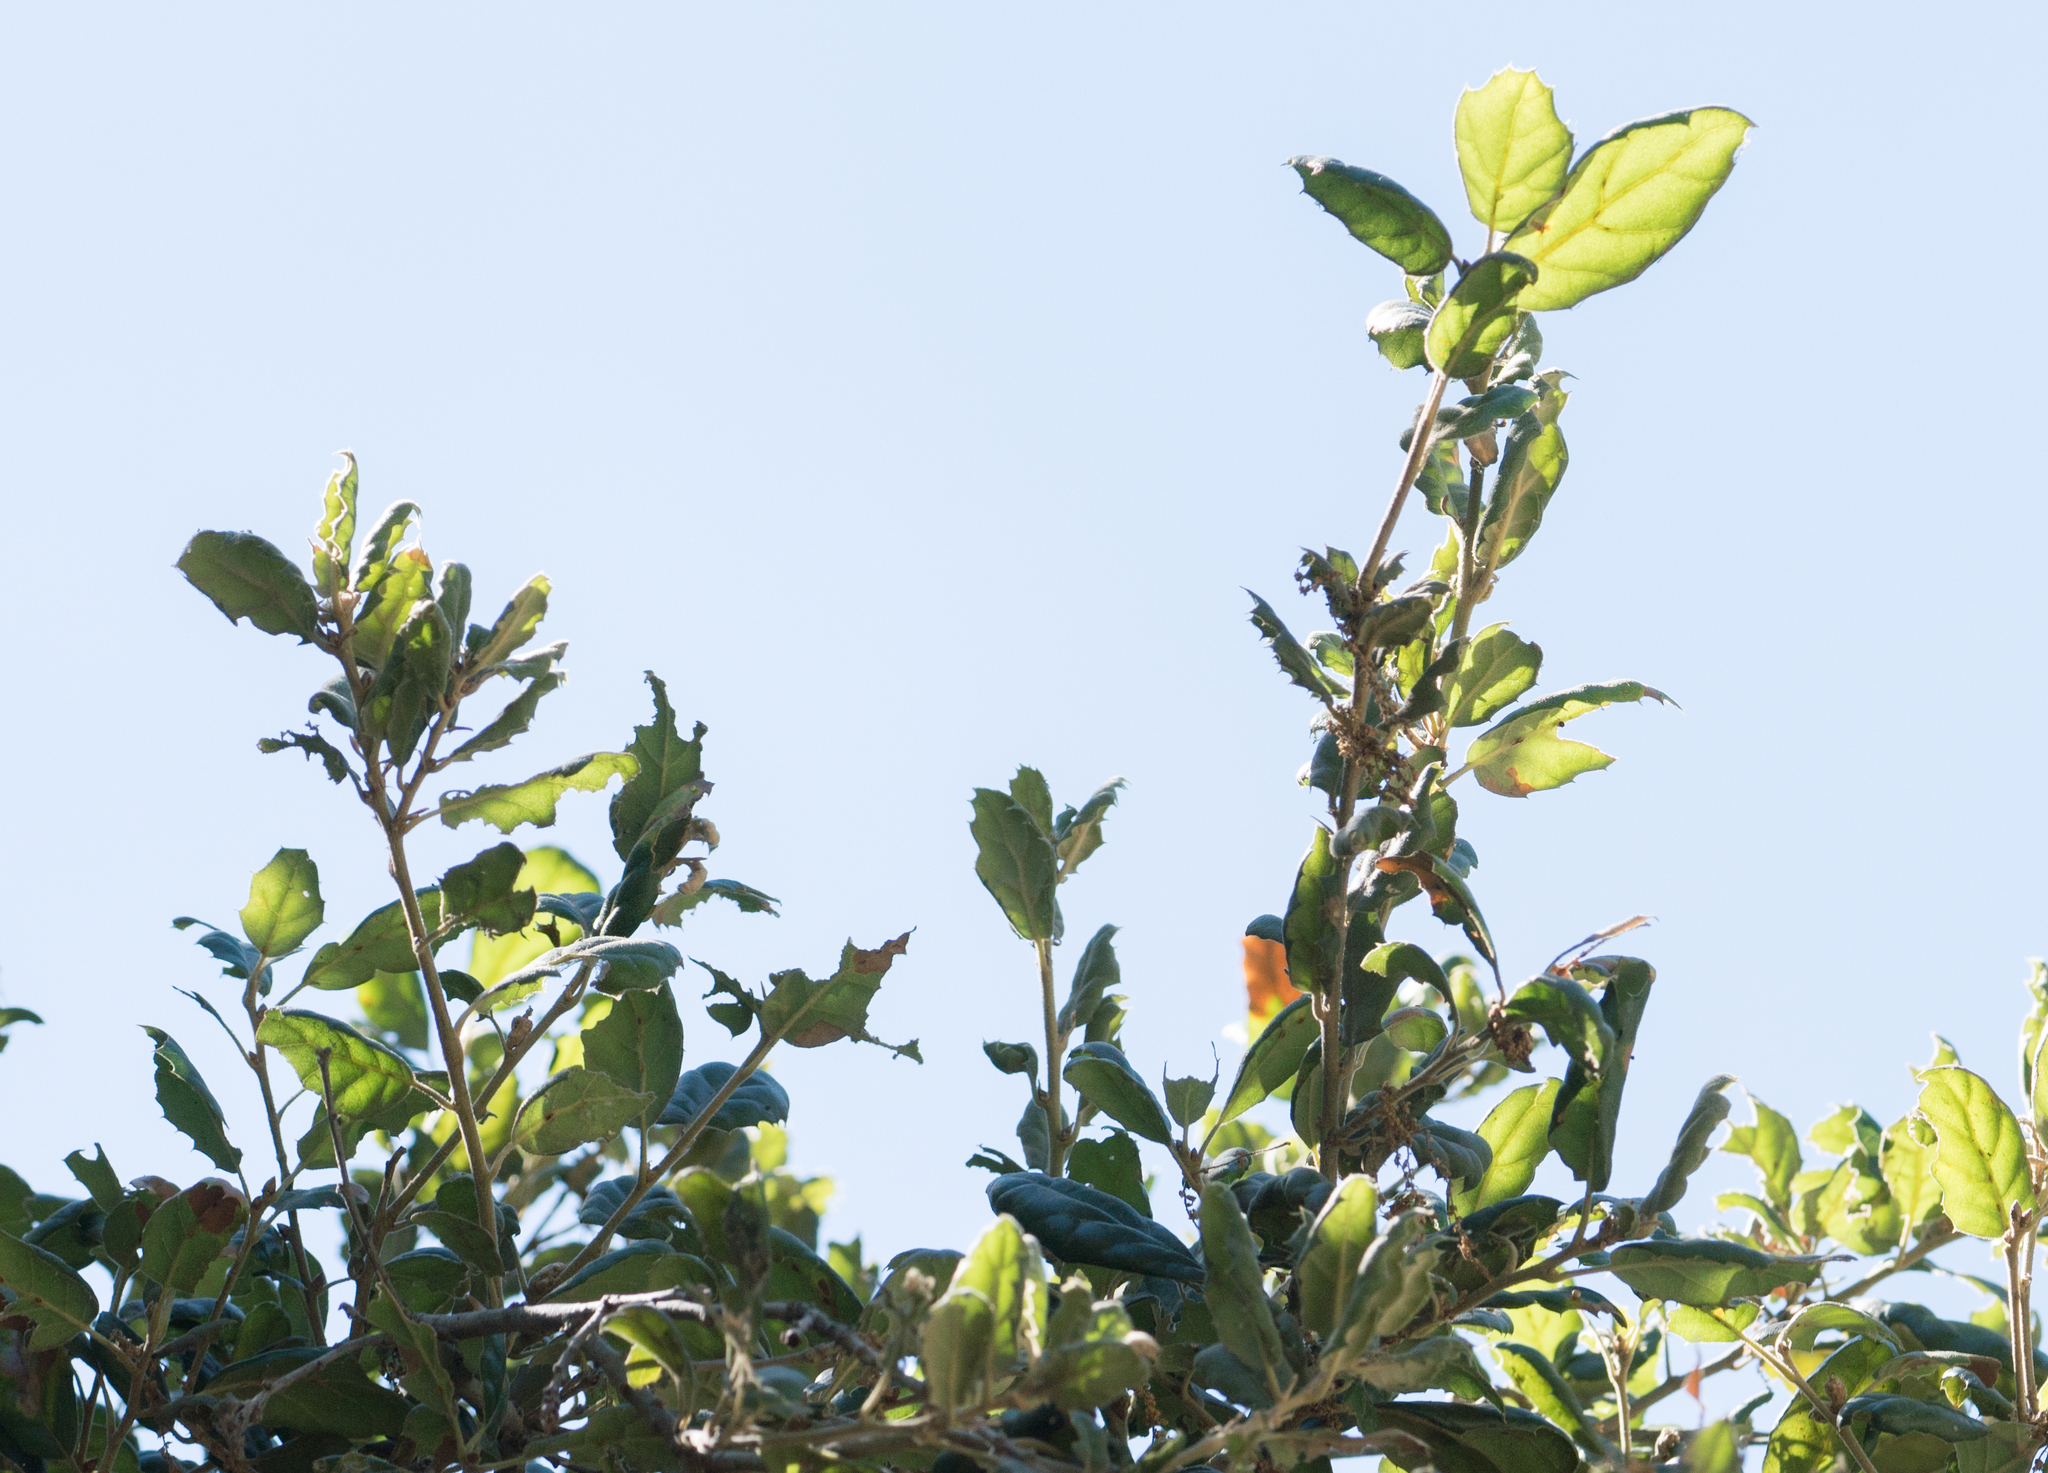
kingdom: Plantae
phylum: Tracheophyta
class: Magnoliopsida
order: Fagales
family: Fagaceae
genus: Quercus
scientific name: Quercus agrifolia
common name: California live oak
